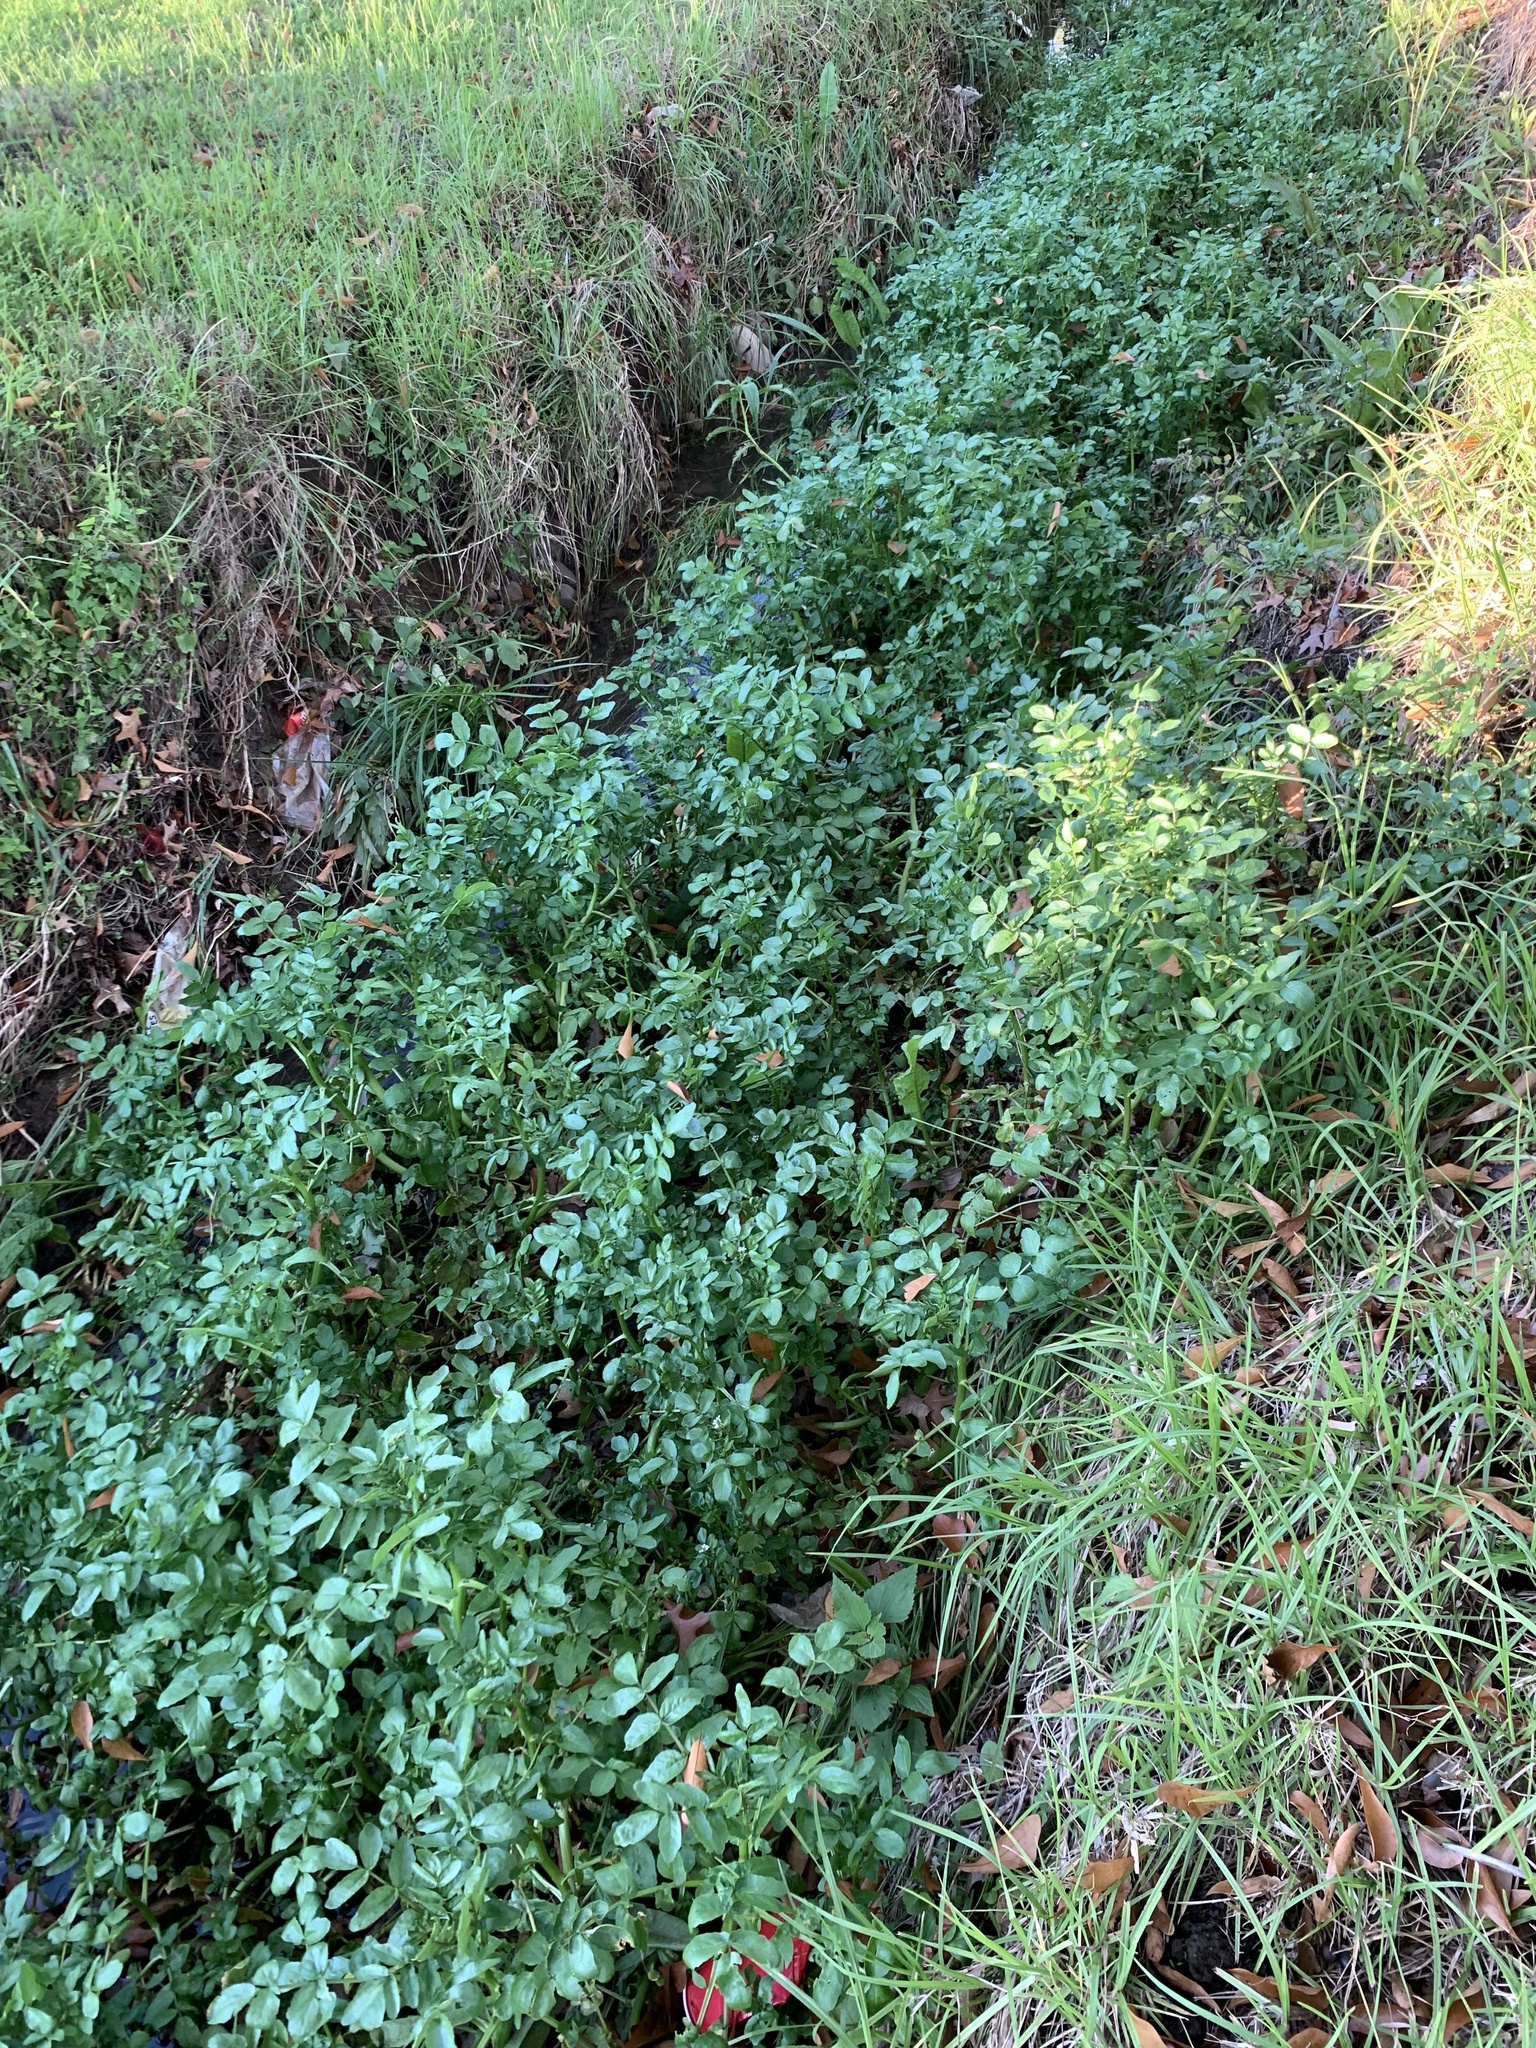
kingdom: Plantae
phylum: Tracheophyta
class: Magnoliopsida
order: Brassicales
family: Brassicaceae
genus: Nasturtium
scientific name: Nasturtium officinale
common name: Watercress
